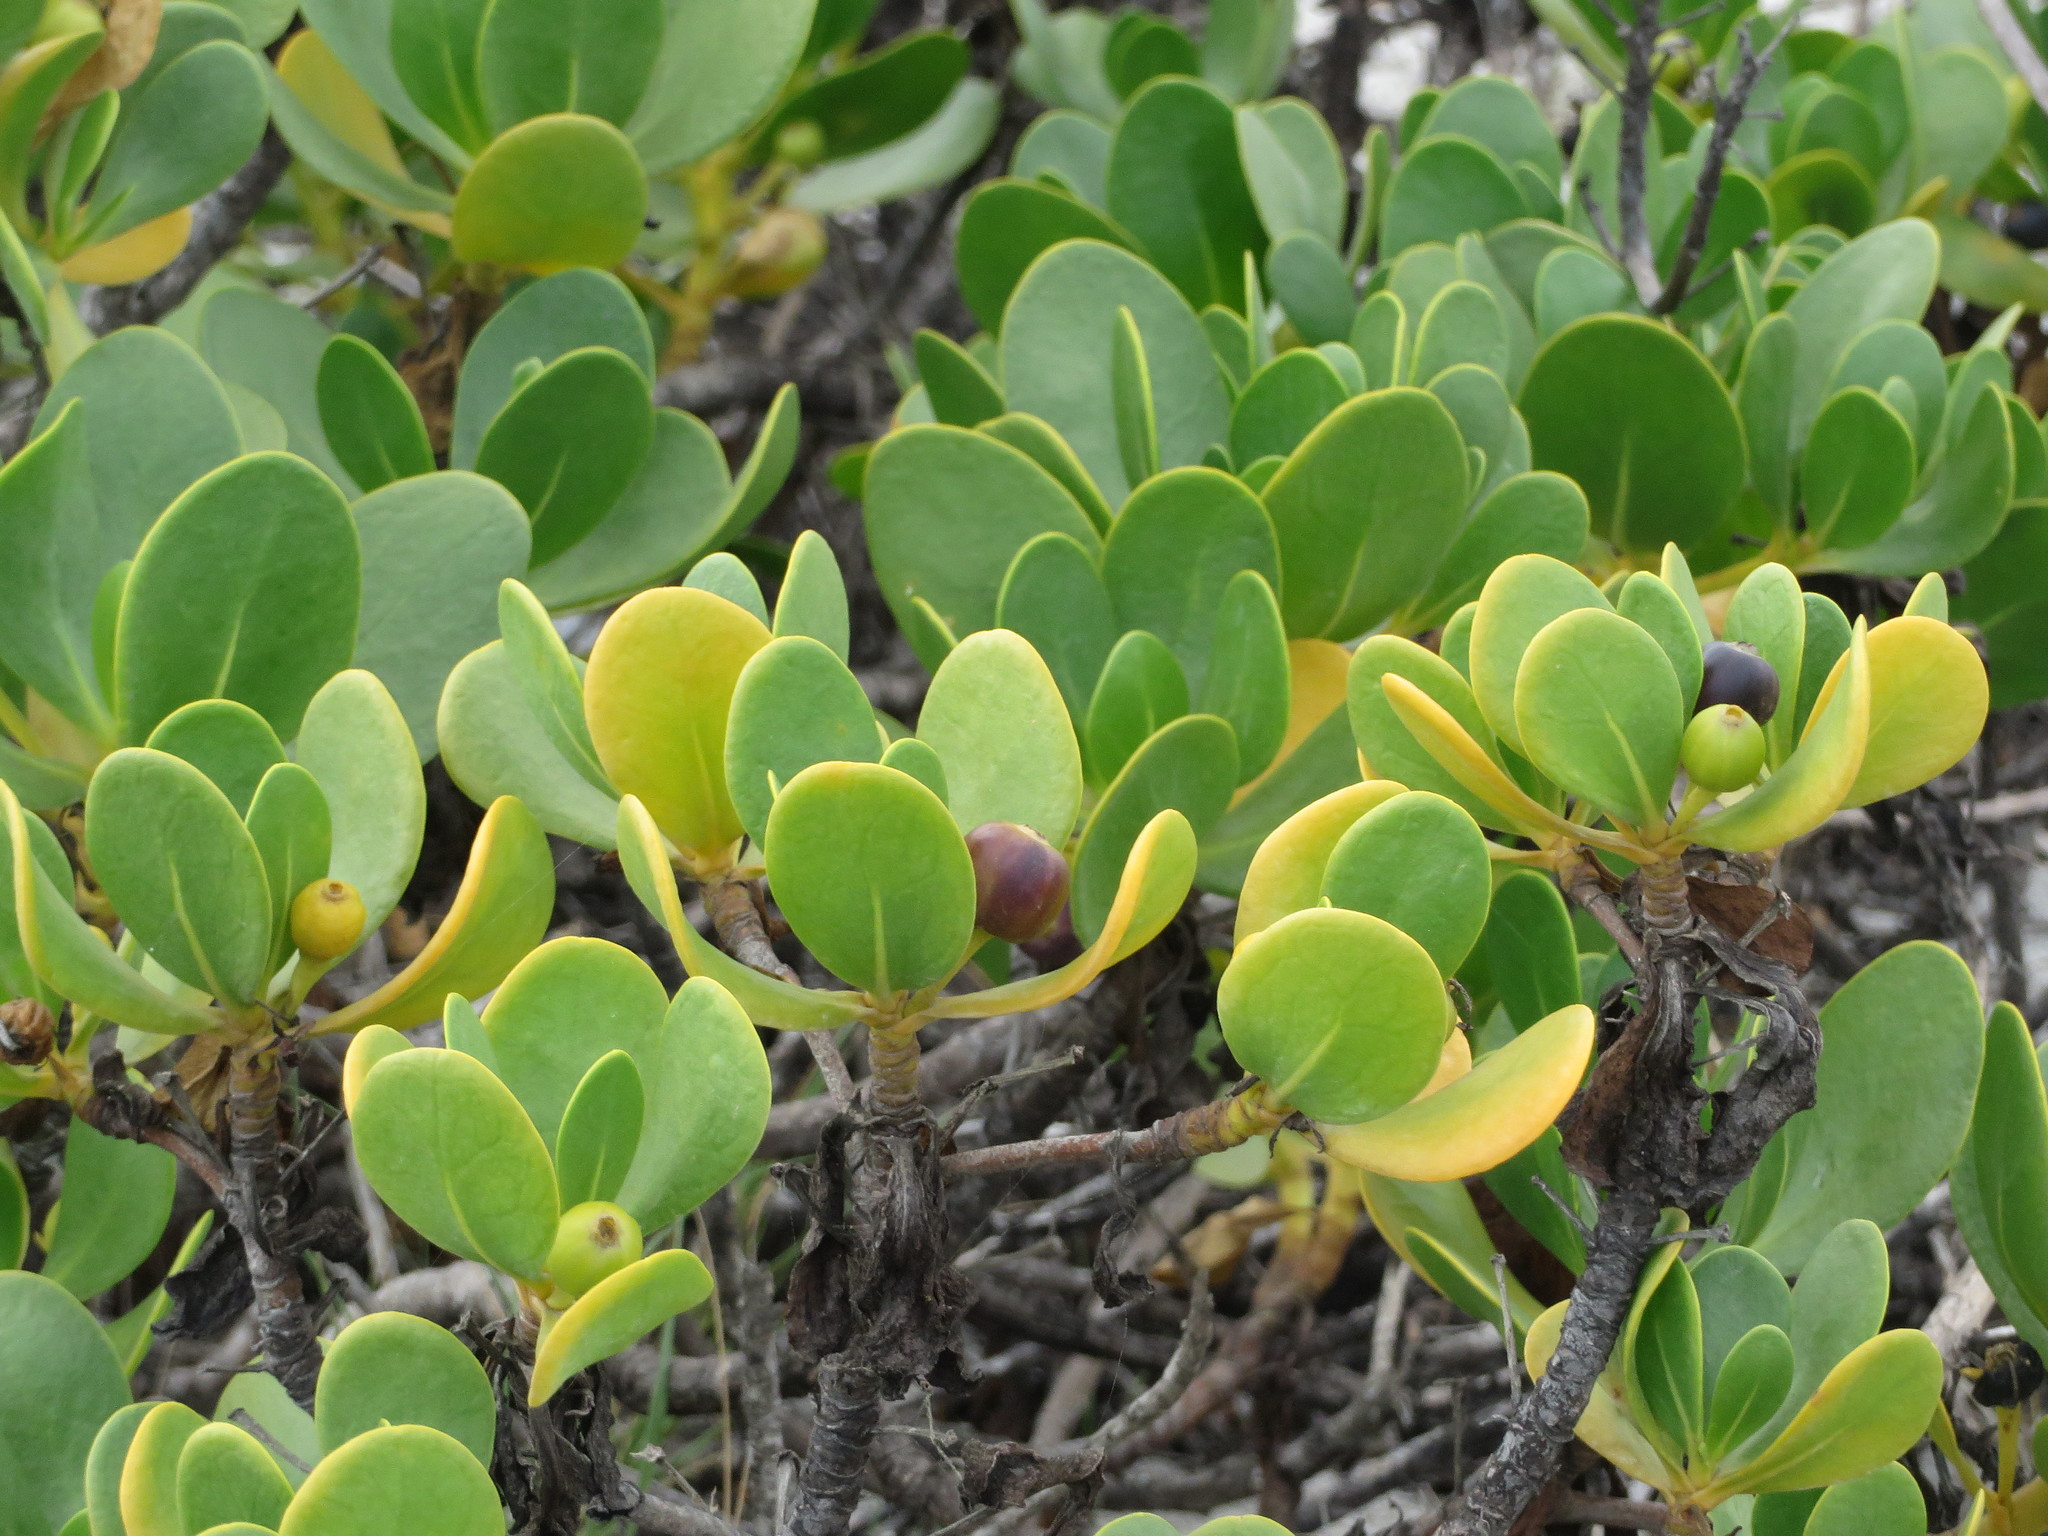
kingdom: Plantae
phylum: Tracheophyta
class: Magnoliopsida
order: Asterales
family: Goodeniaceae
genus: Scaevola
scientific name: Scaevola plumieri
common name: Gull feed
